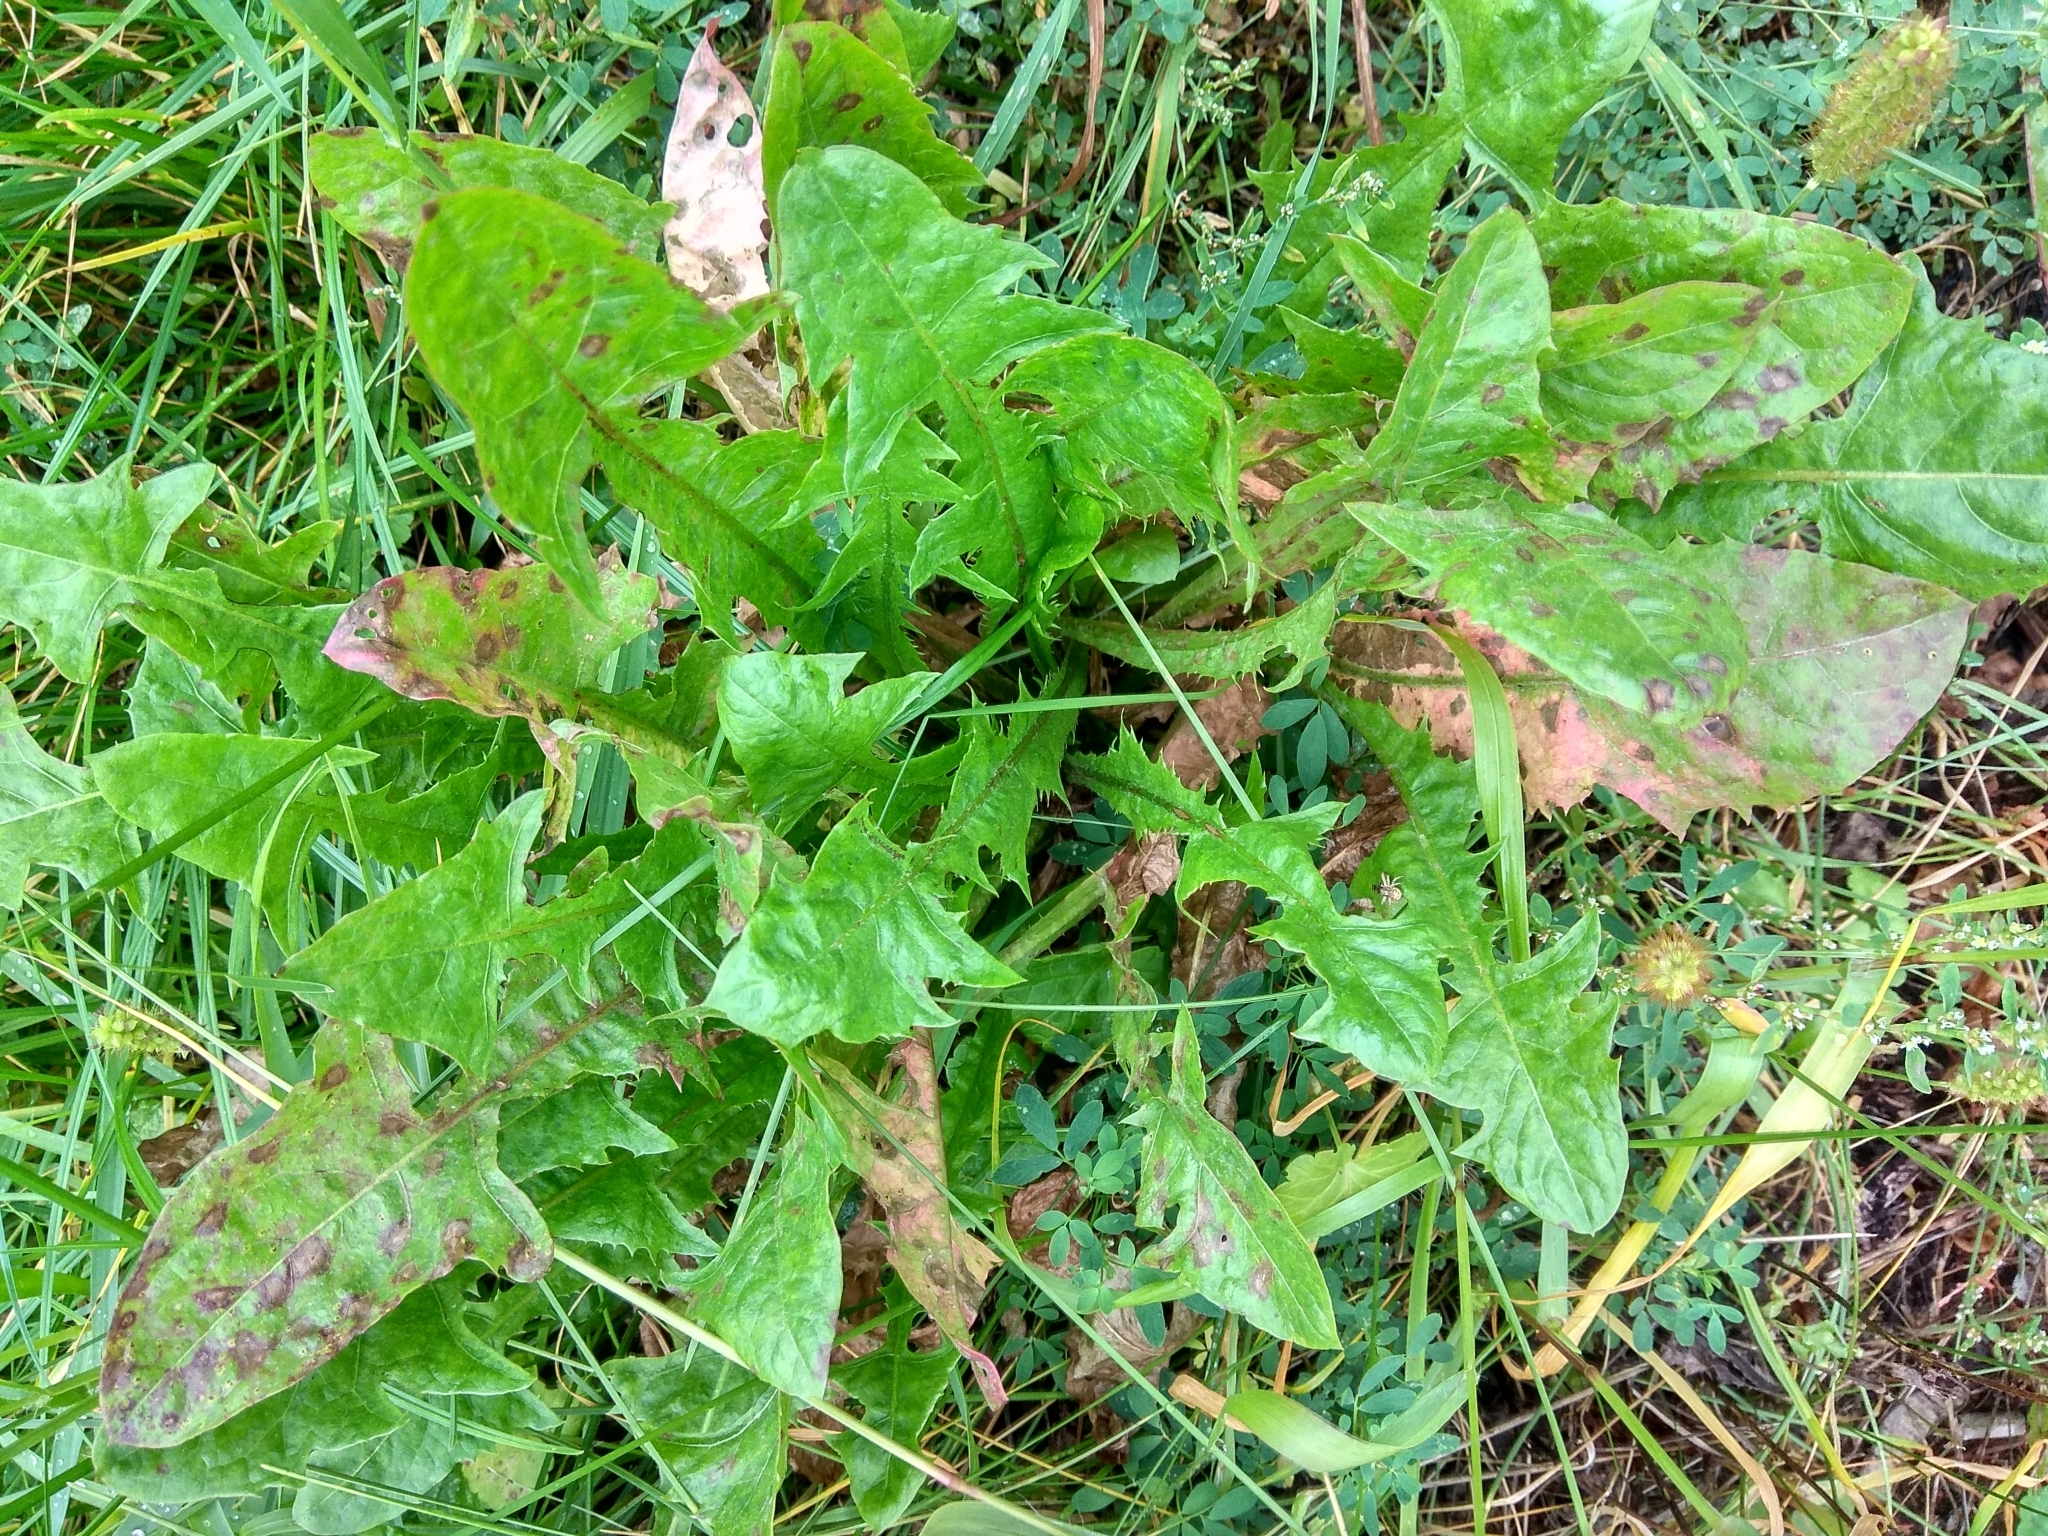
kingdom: Plantae
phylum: Tracheophyta
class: Magnoliopsida
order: Asterales
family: Asteraceae
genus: Taraxacum
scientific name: Taraxacum officinale
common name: Common dandelion
